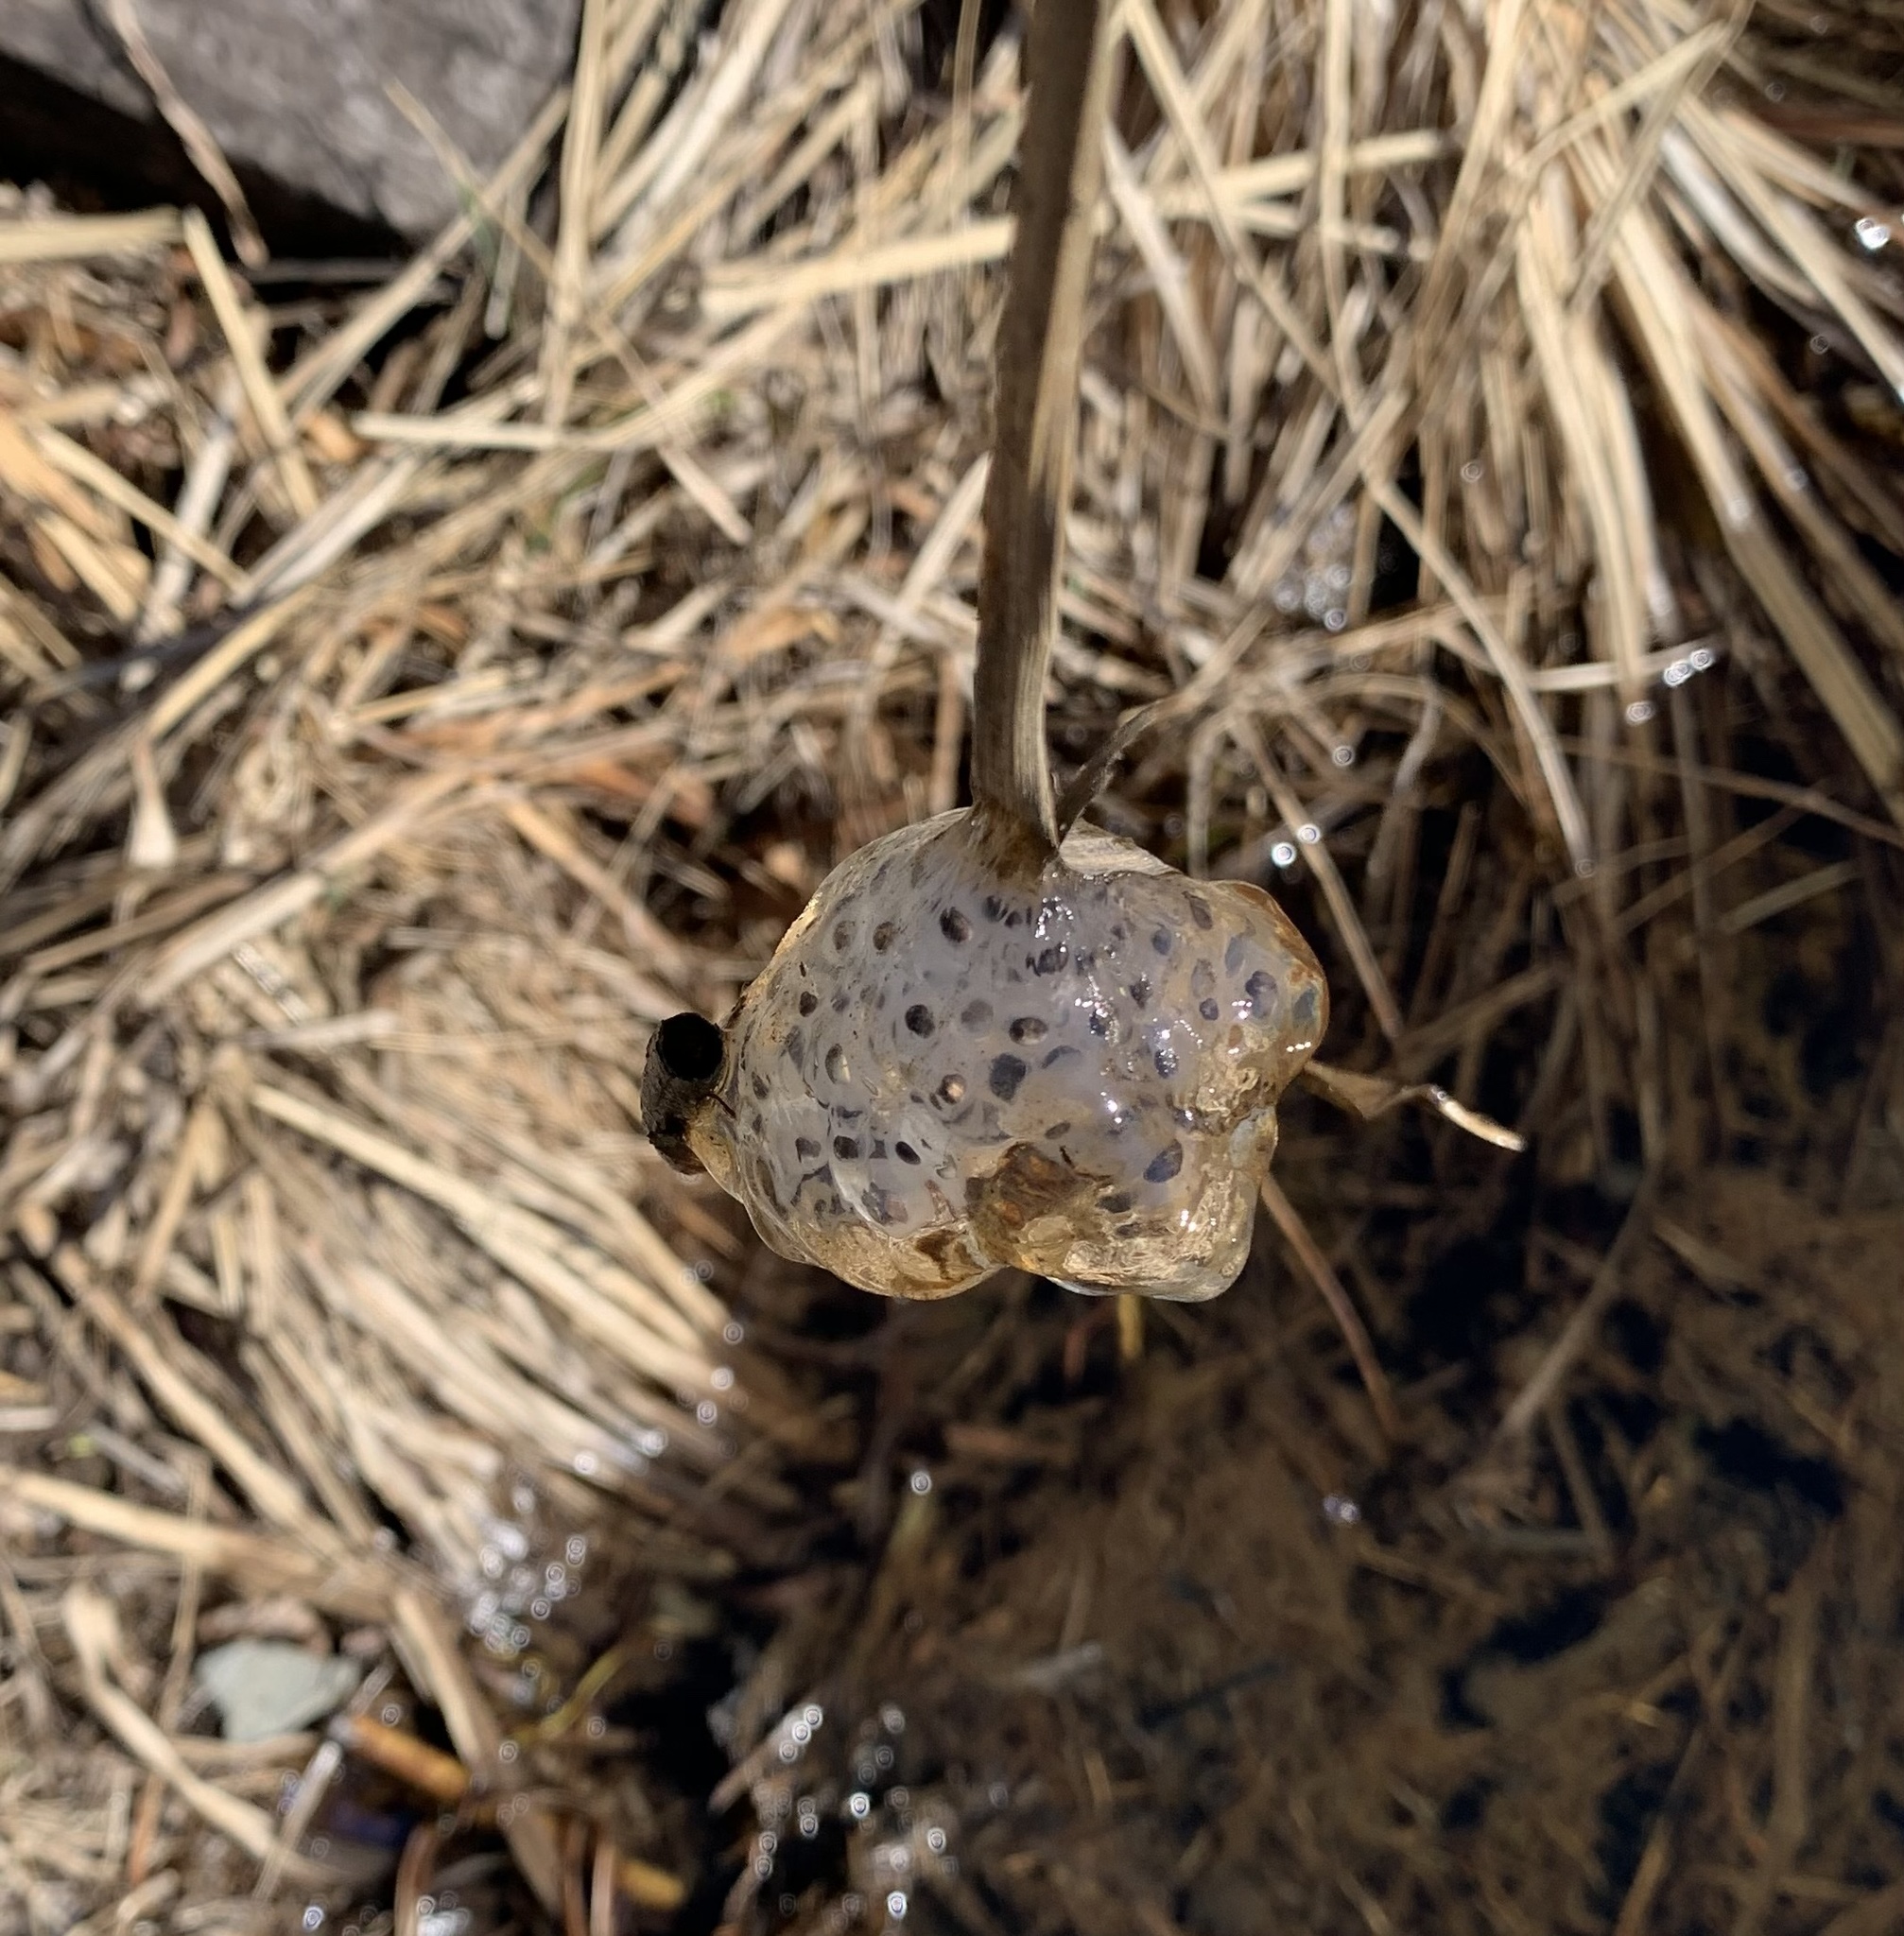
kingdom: Animalia
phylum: Chordata
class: Amphibia
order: Caudata
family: Ambystomatidae
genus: Ambystoma
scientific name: Ambystoma maculatum
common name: Spotted salamander
